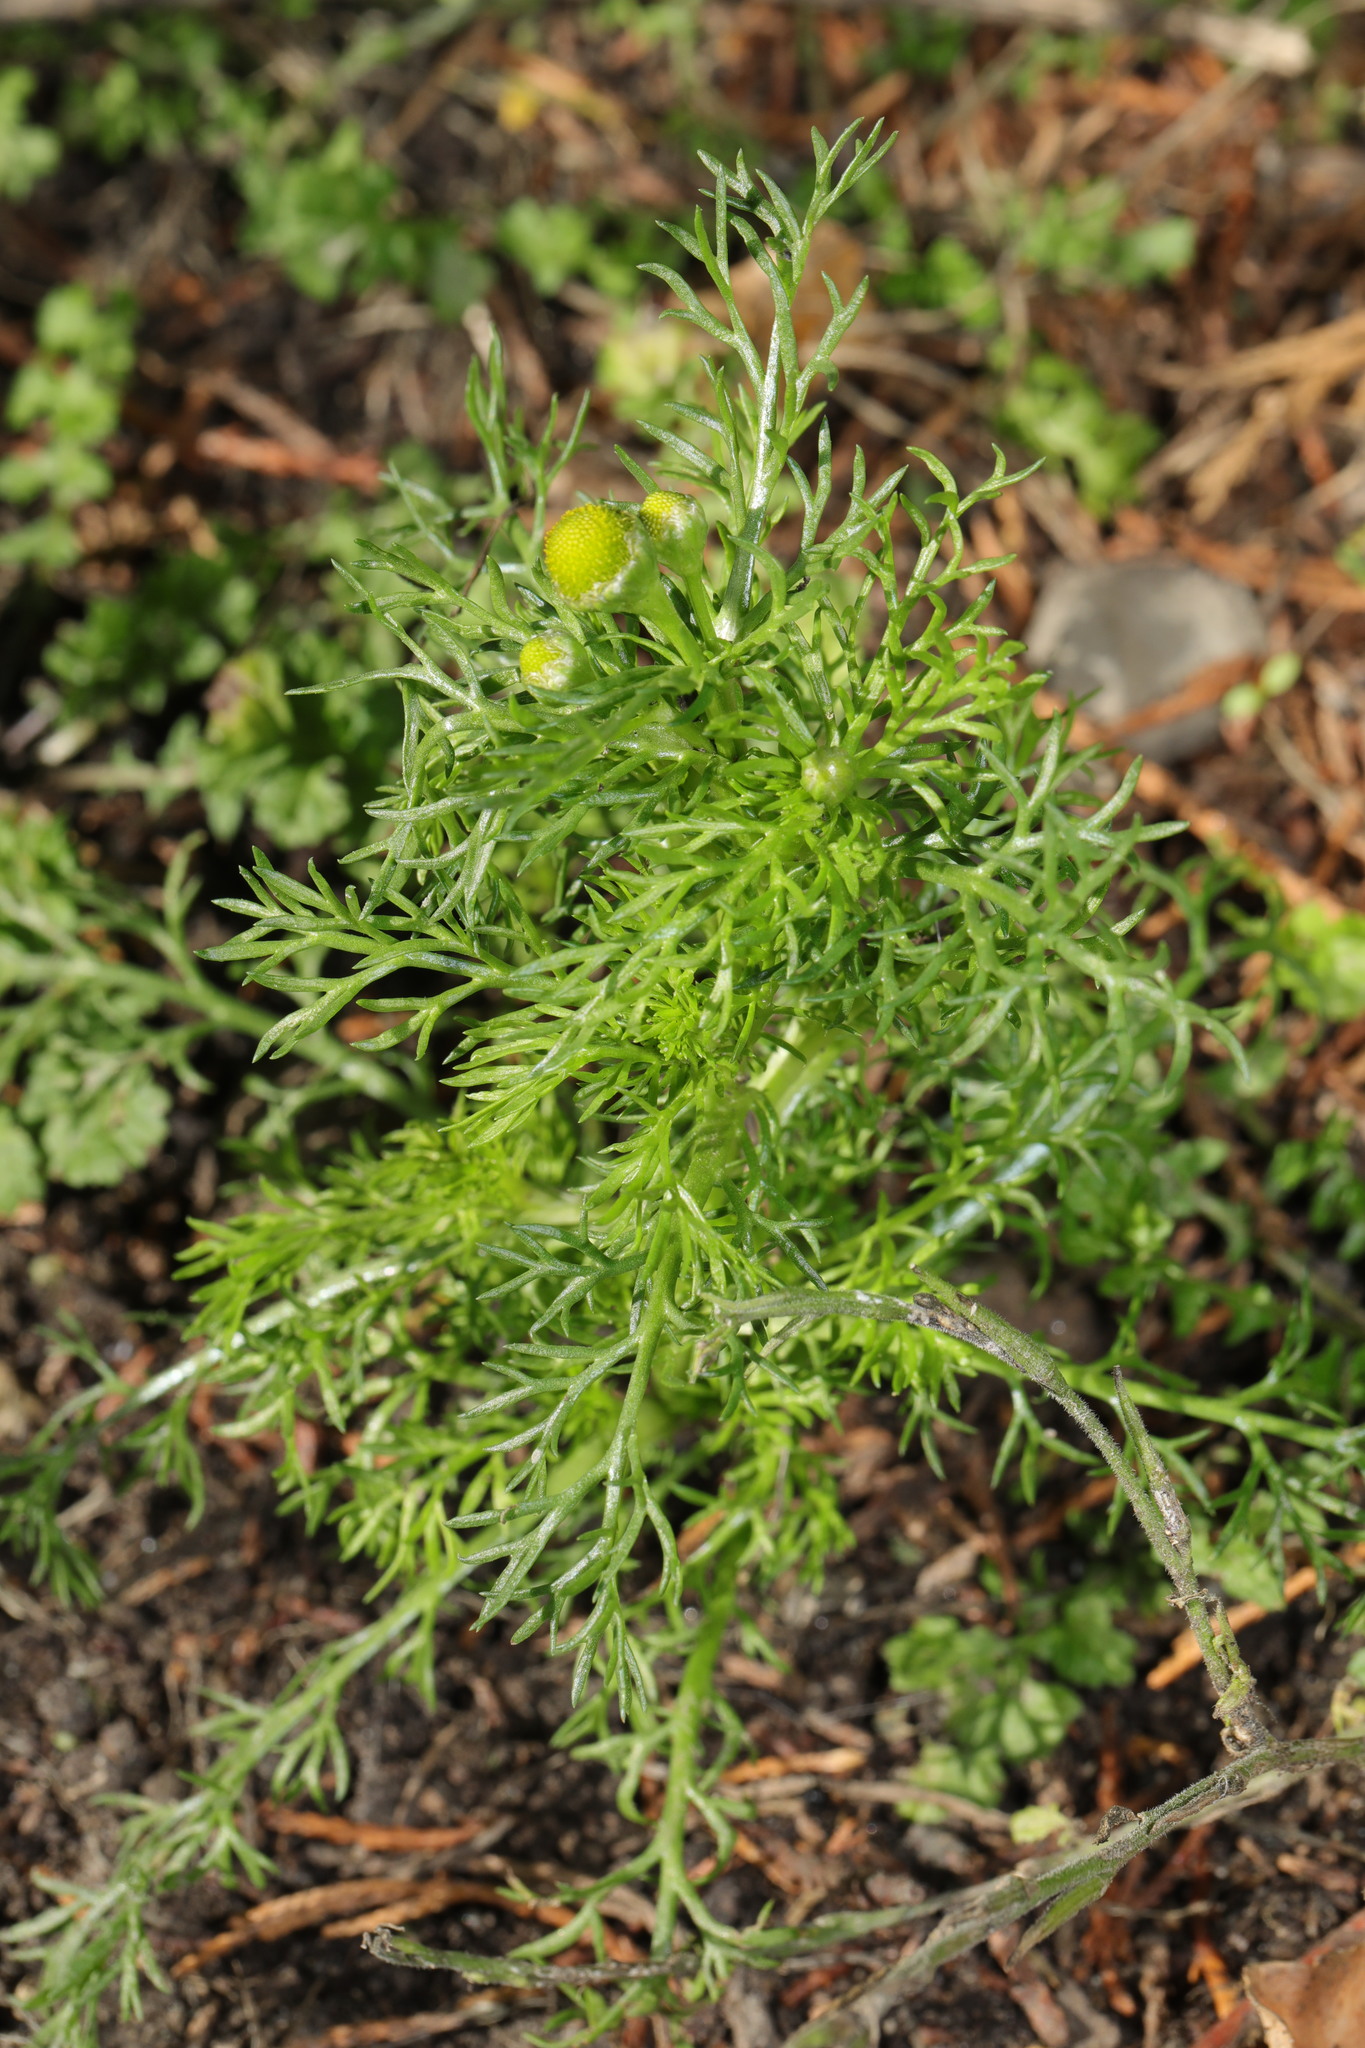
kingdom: Plantae
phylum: Tracheophyta
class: Magnoliopsida
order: Asterales
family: Asteraceae
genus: Matricaria
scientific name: Matricaria discoidea
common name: Disc mayweed
